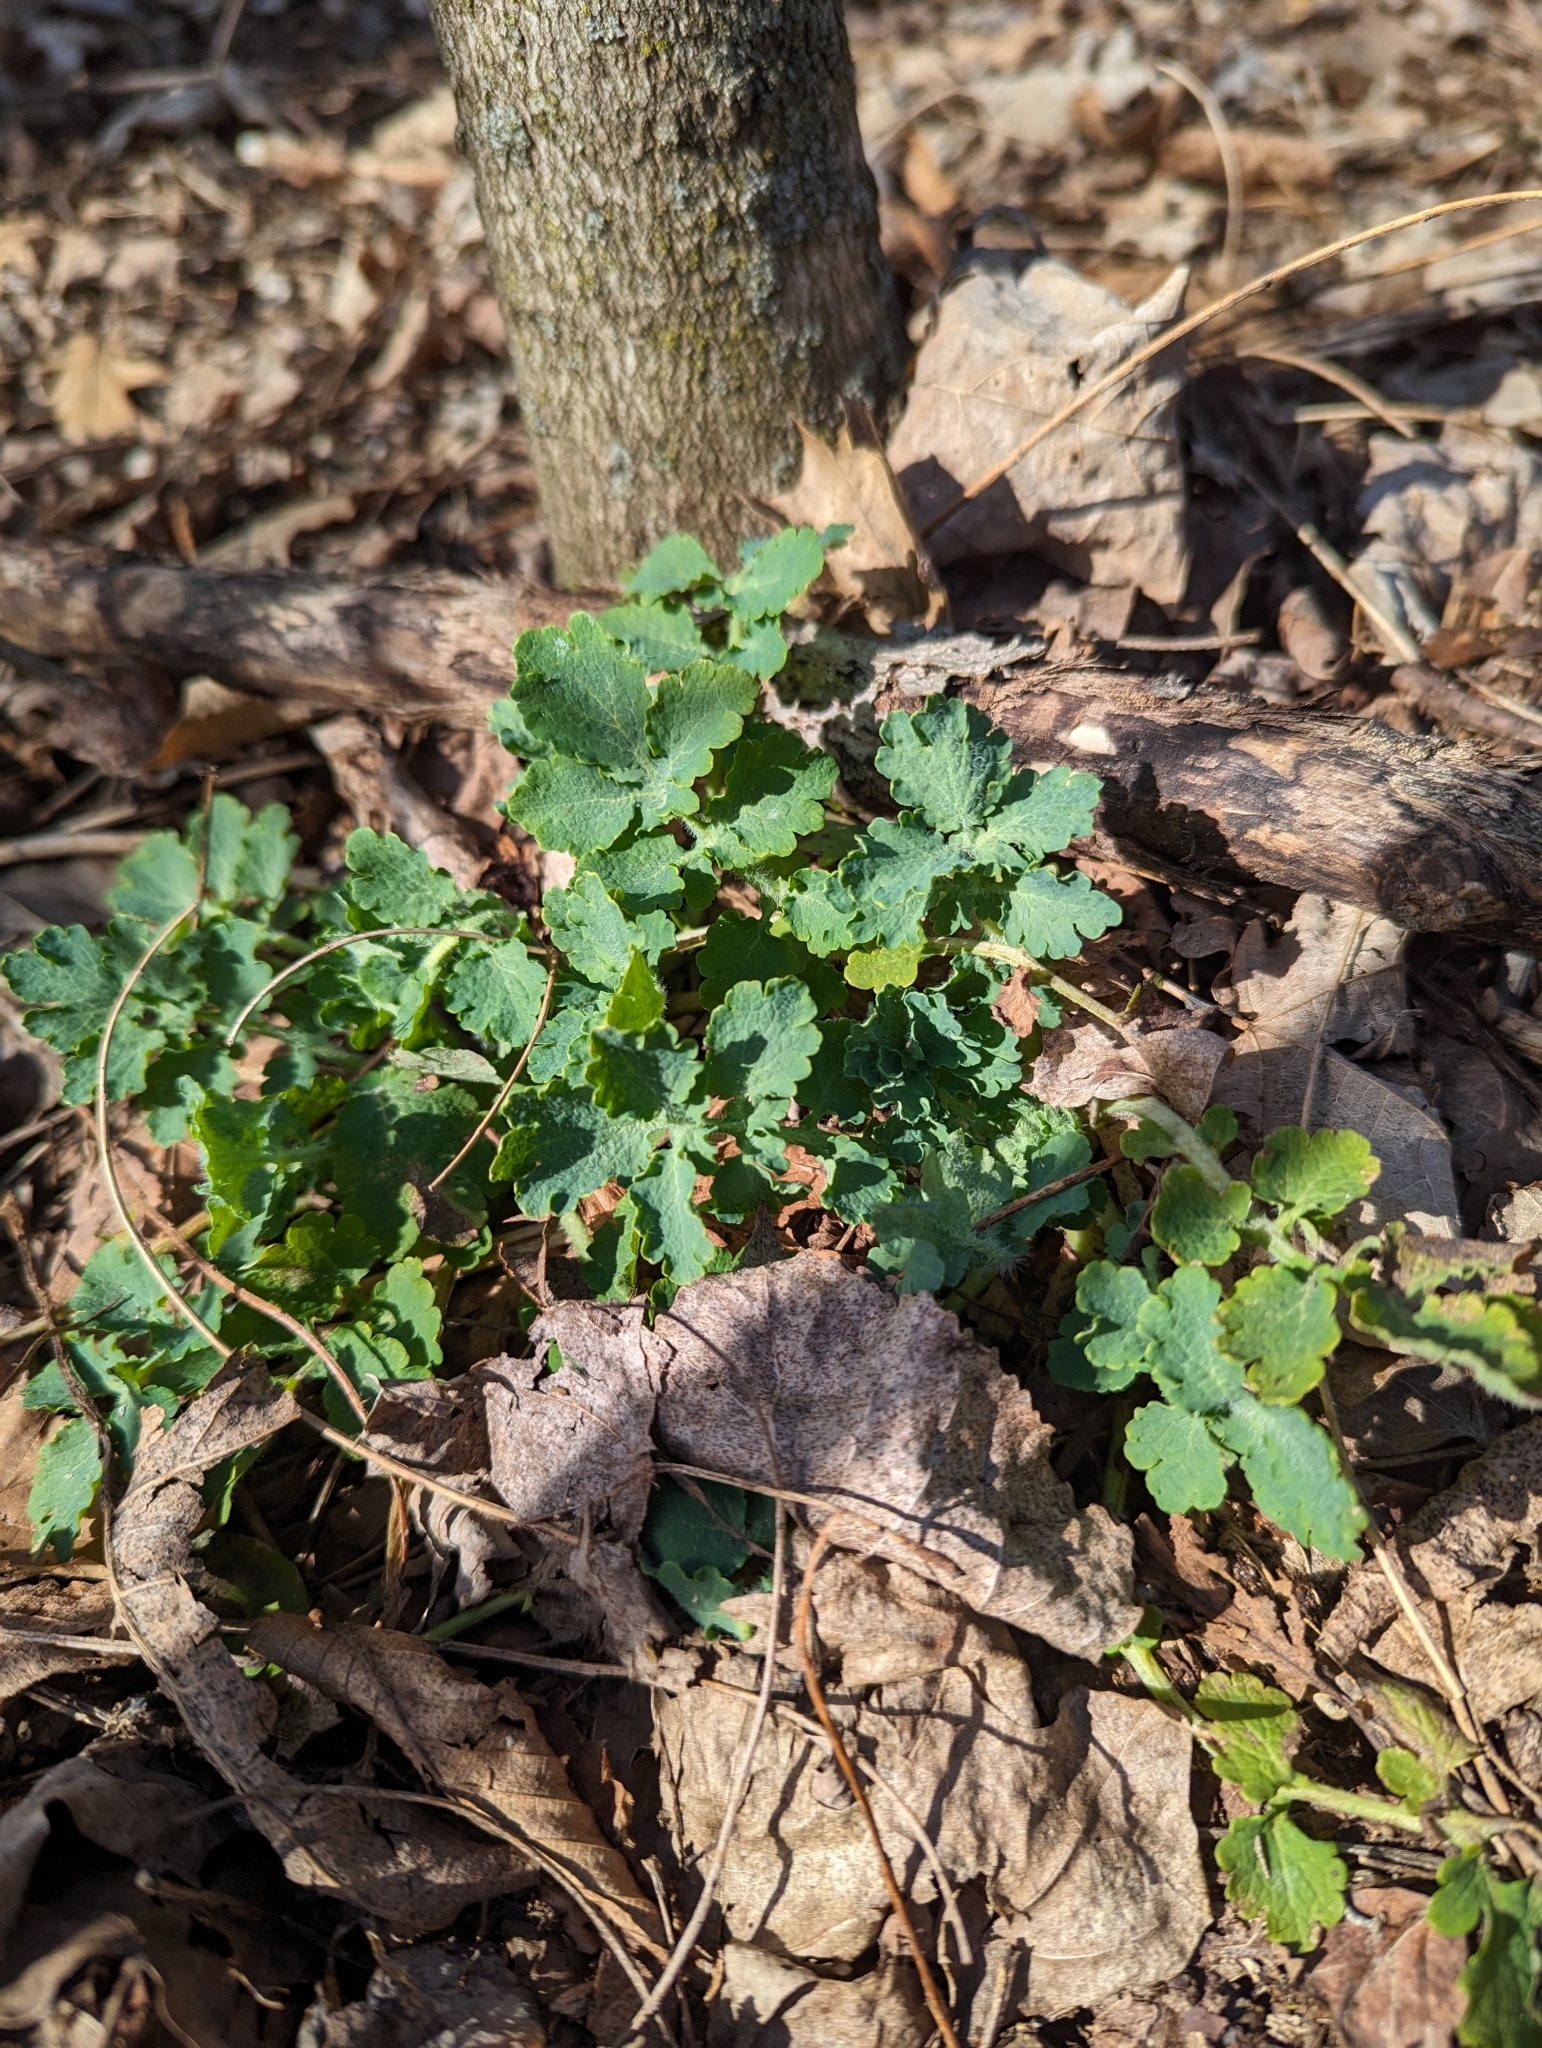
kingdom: Plantae
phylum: Tracheophyta
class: Magnoliopsida
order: Ranunculales
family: Papaveraceae
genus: Chelidonium
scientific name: Chelidonium majus
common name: Greater celandine
